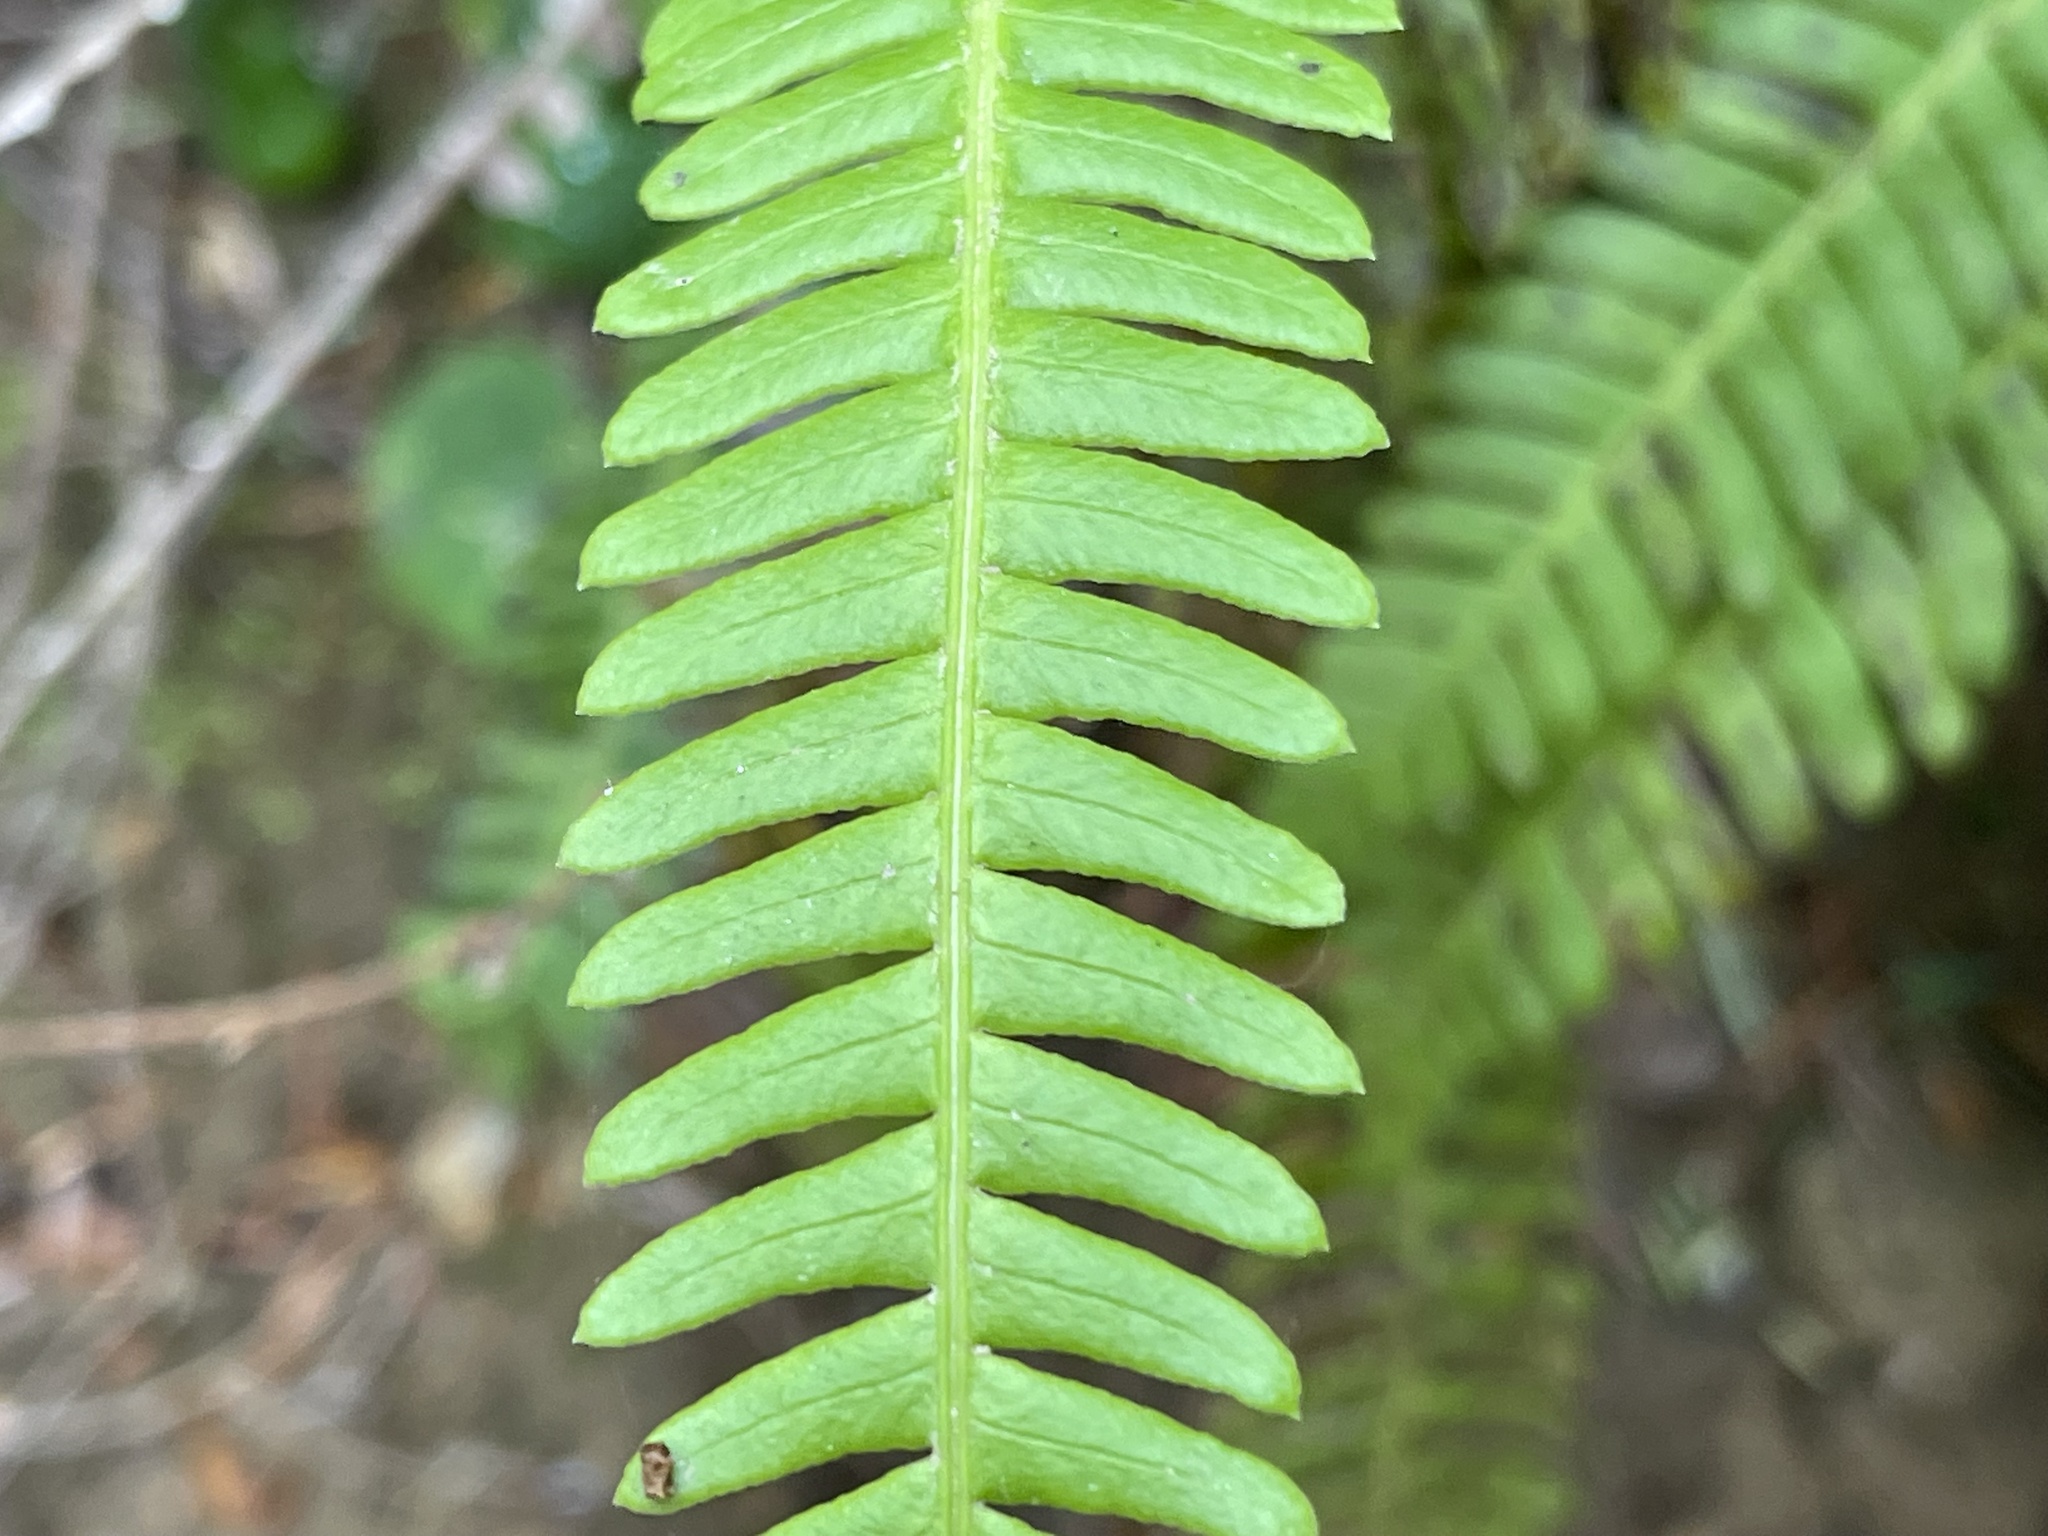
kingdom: Plantae
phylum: Tracheophyta
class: Polypodiopsida
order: Polypodiales
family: Blechnaceae
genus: Struthiopteris
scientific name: Struthiopteris spicant
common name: Deer fern
